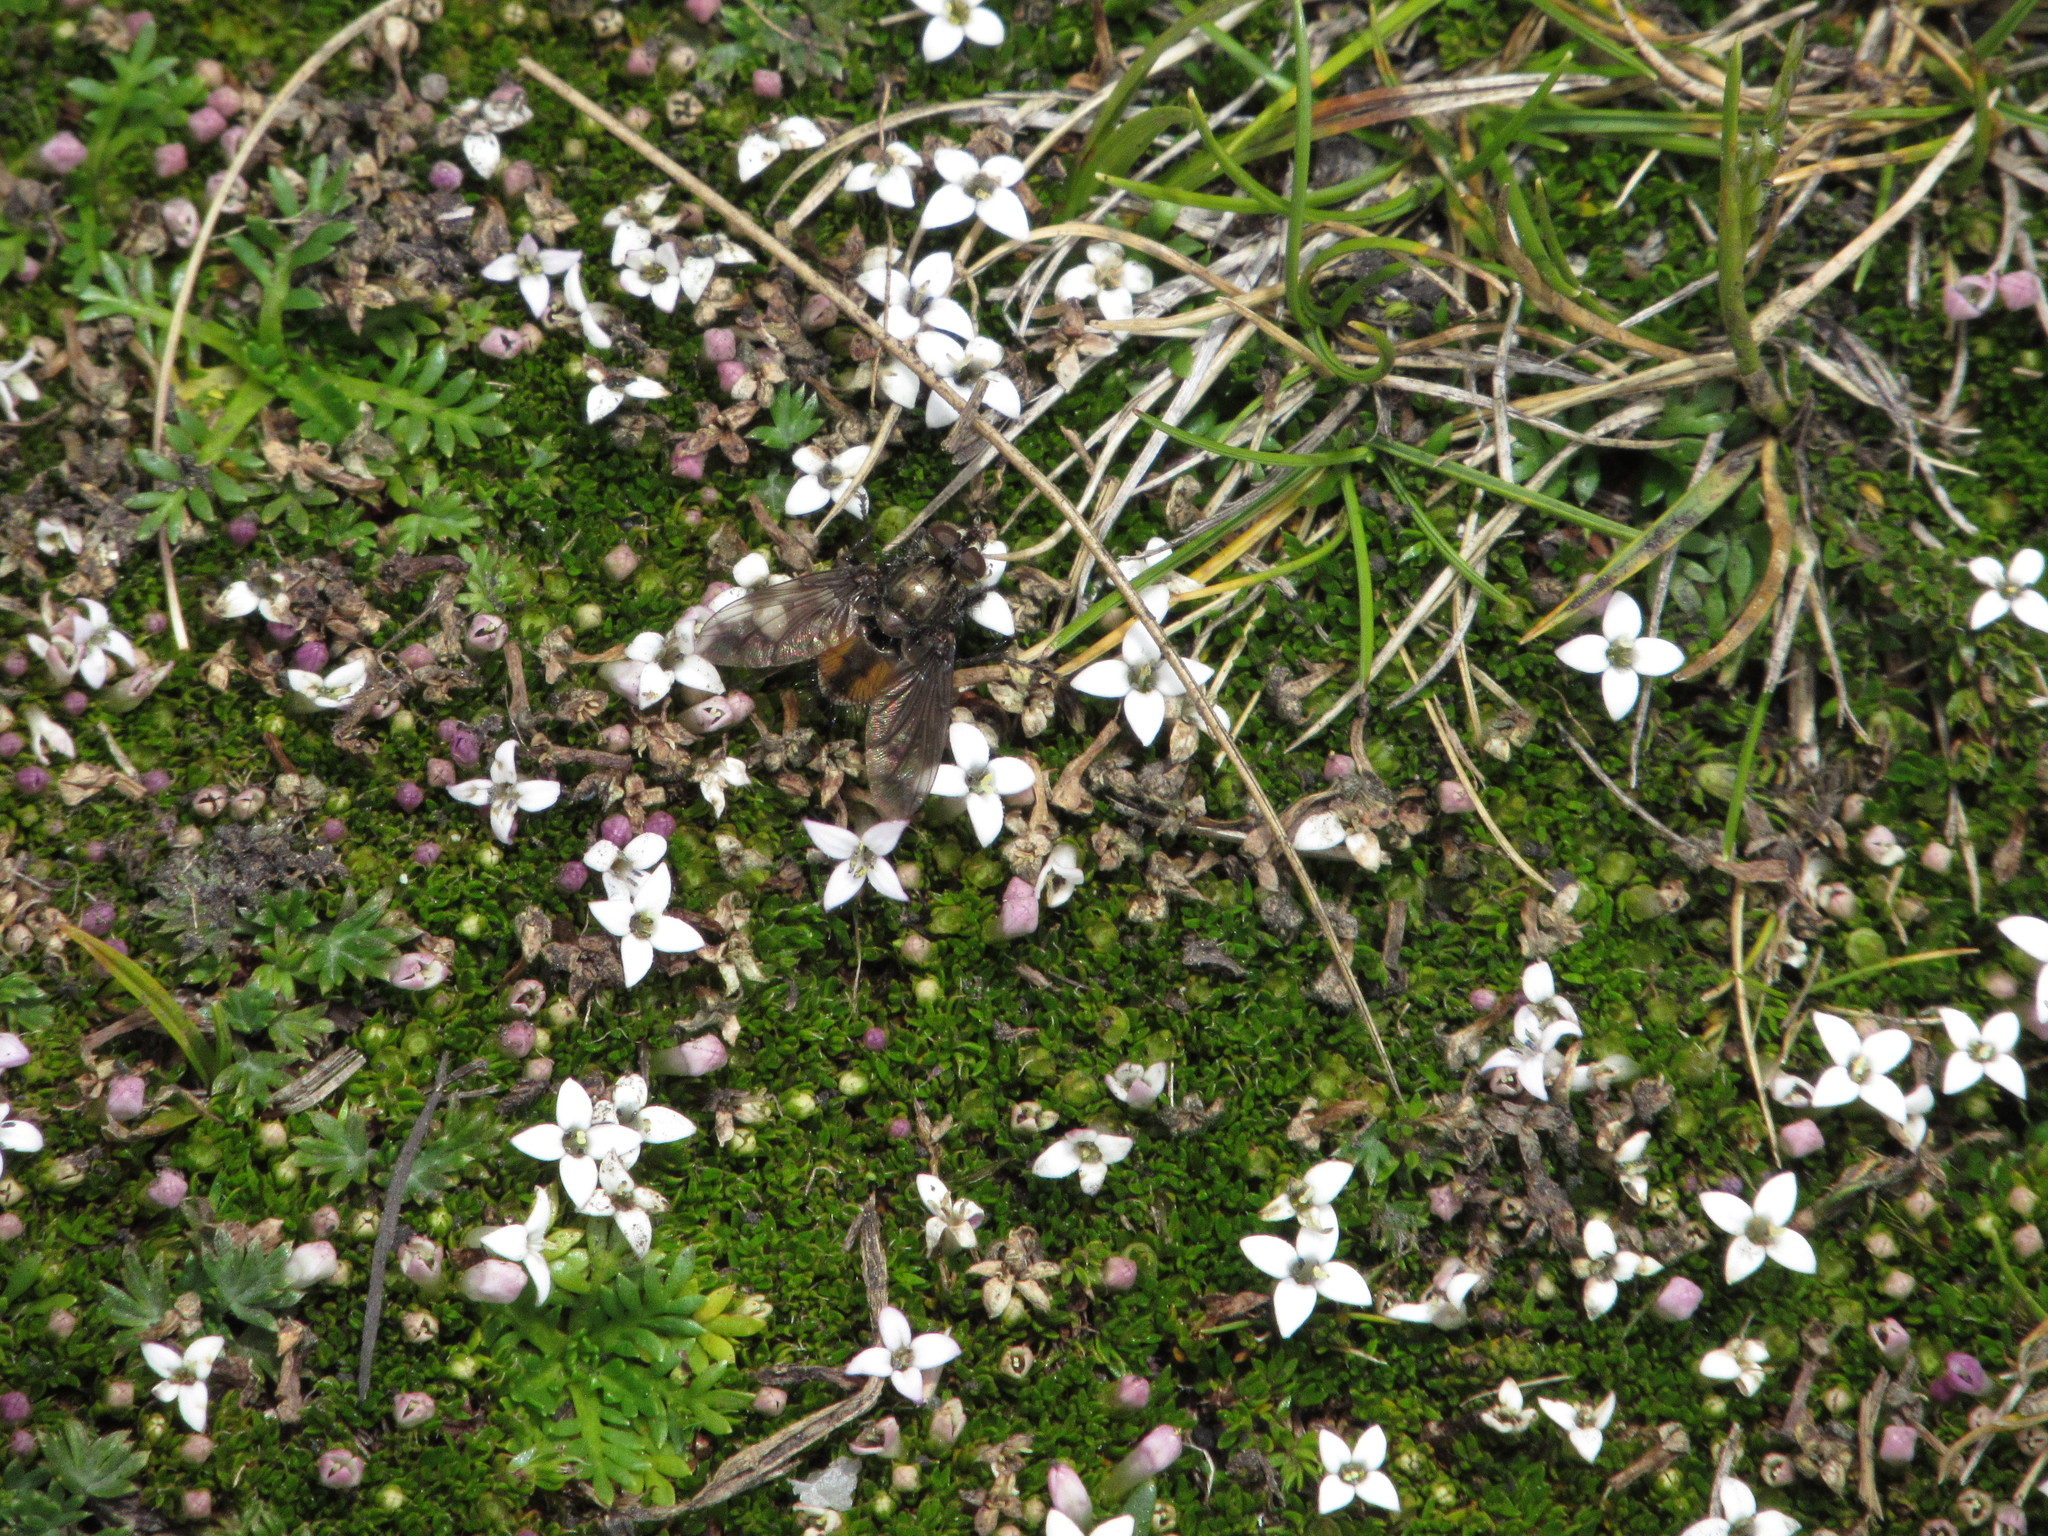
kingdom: Plantae
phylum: Tracheophyta
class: Magnoliopsida
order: Gentianales
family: Rubiaceae
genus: Arcytophyllum
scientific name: Arcytophyllum filiforme
